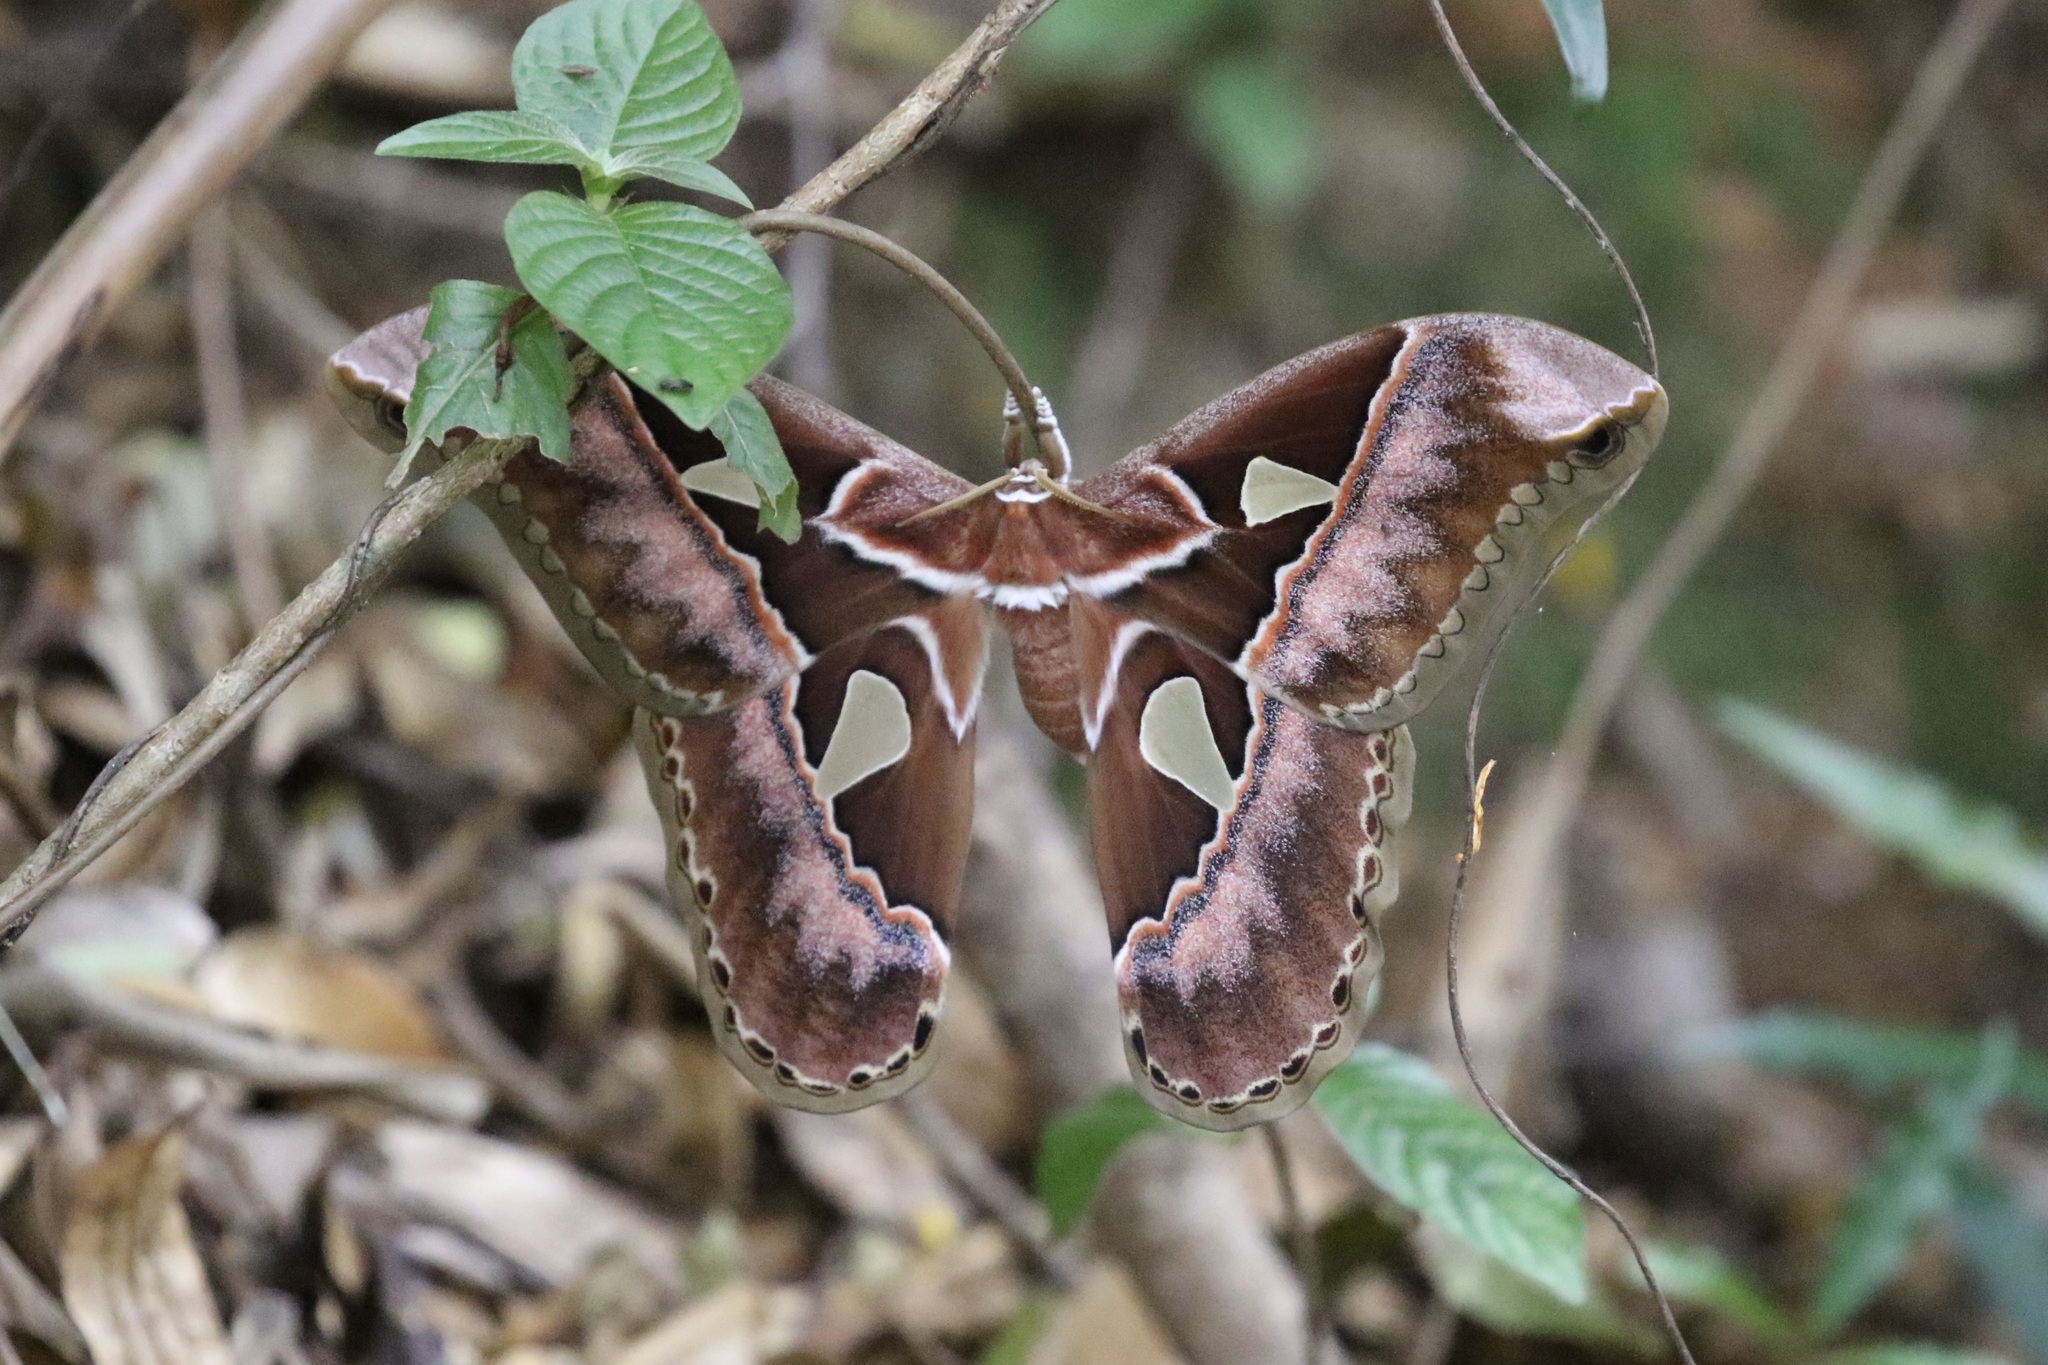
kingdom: Animalia
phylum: Arthropoda
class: Insecta
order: Lepidoptera
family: Saturniidae
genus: Rothschildia
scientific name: Rothschildia speculifer
